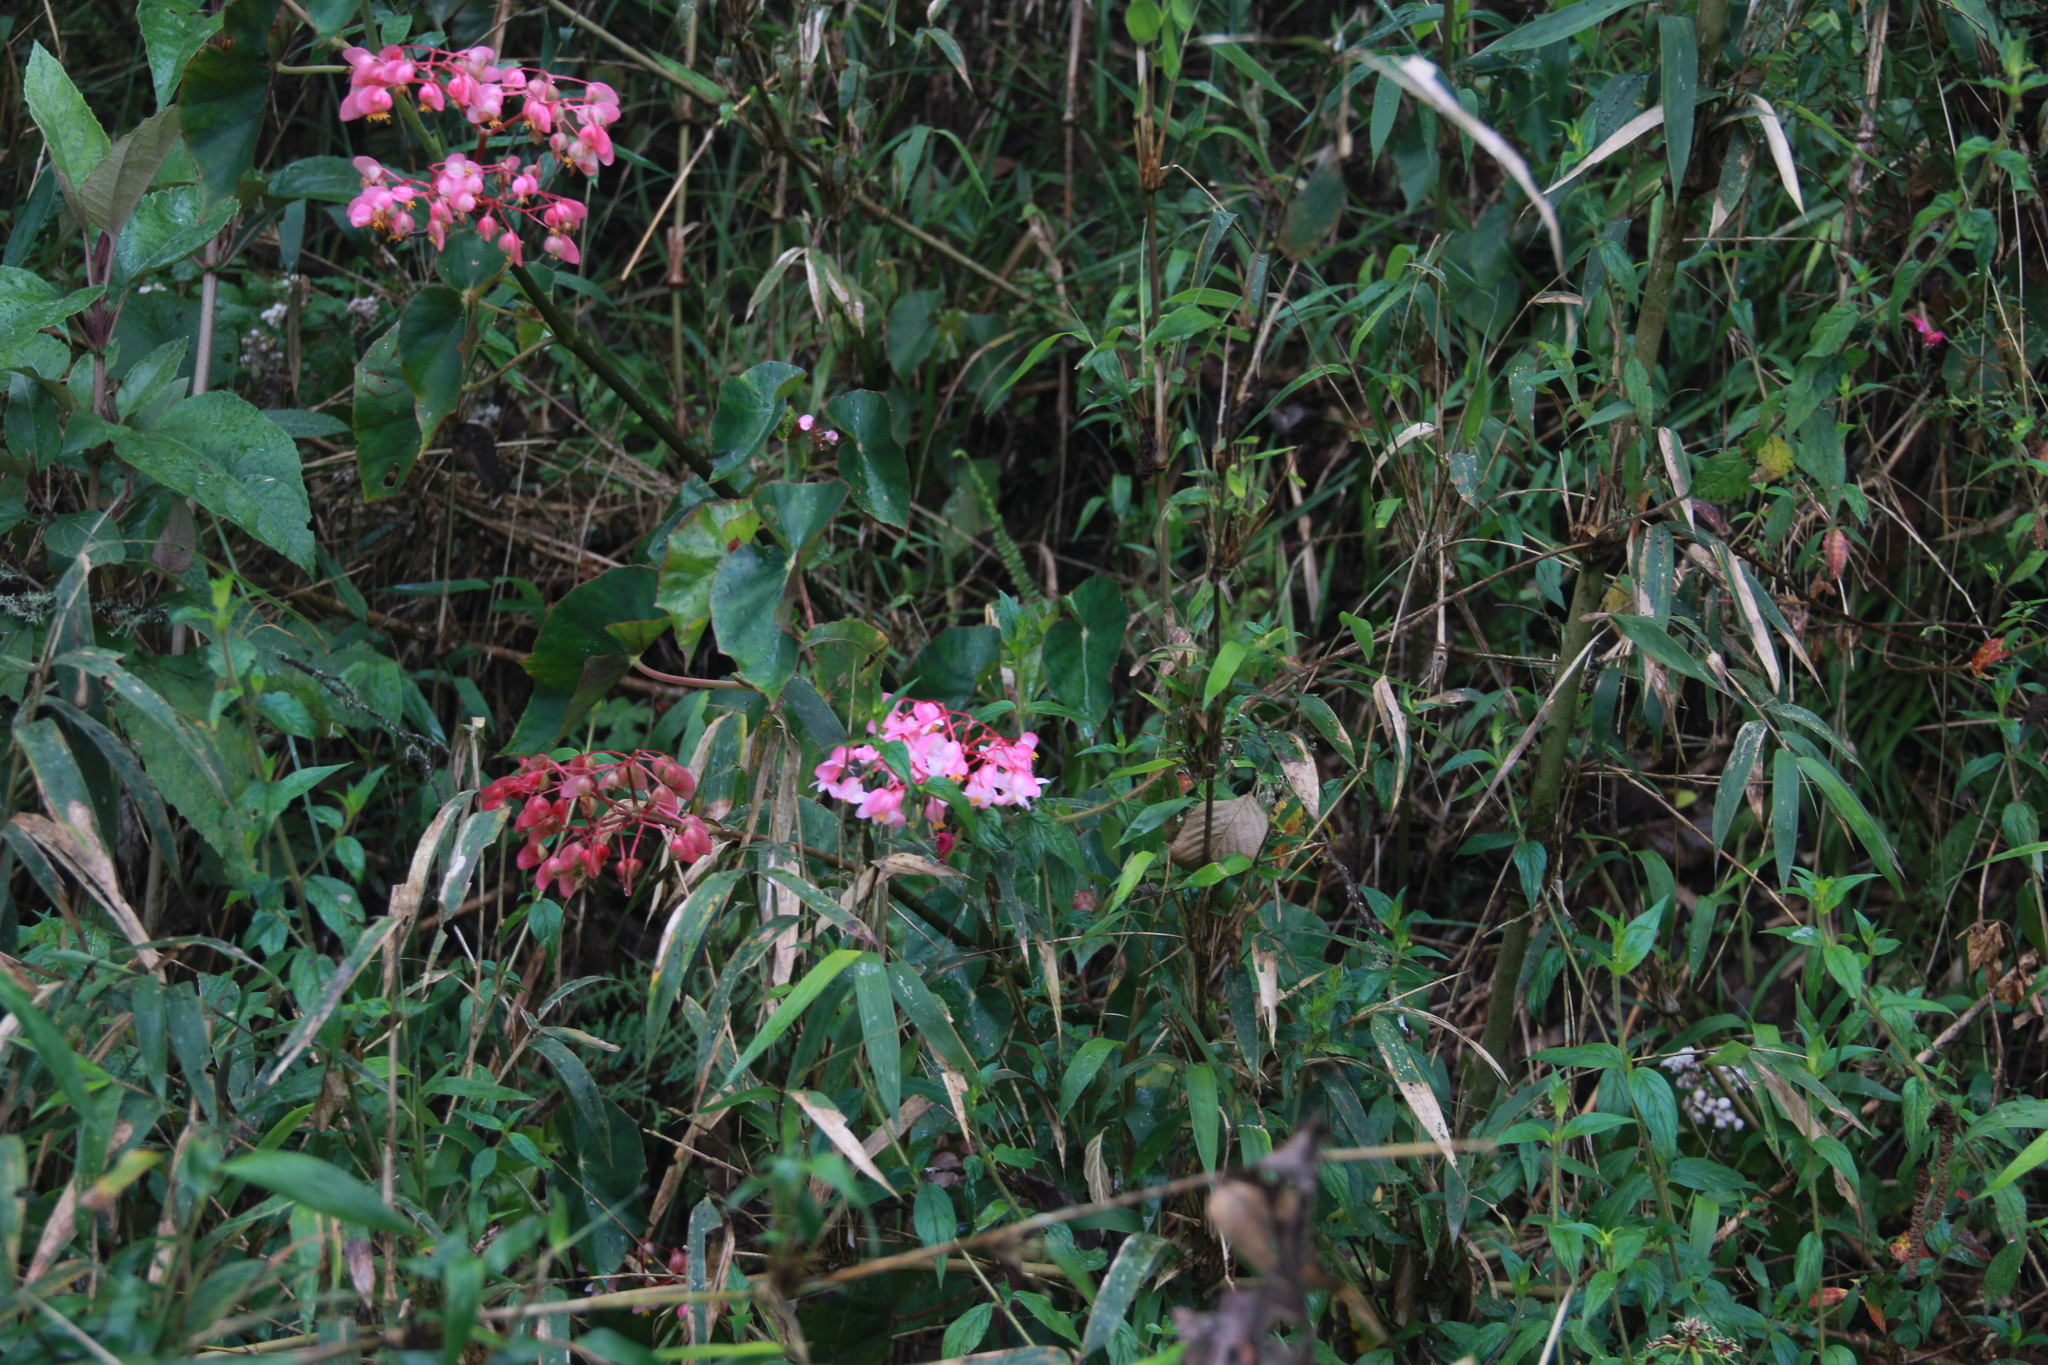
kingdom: Plantae
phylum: Tracheophyta
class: Magnoliopsida
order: Cucurbitales
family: Begoniaceae
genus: Begonia
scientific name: Begonia fissistyla
